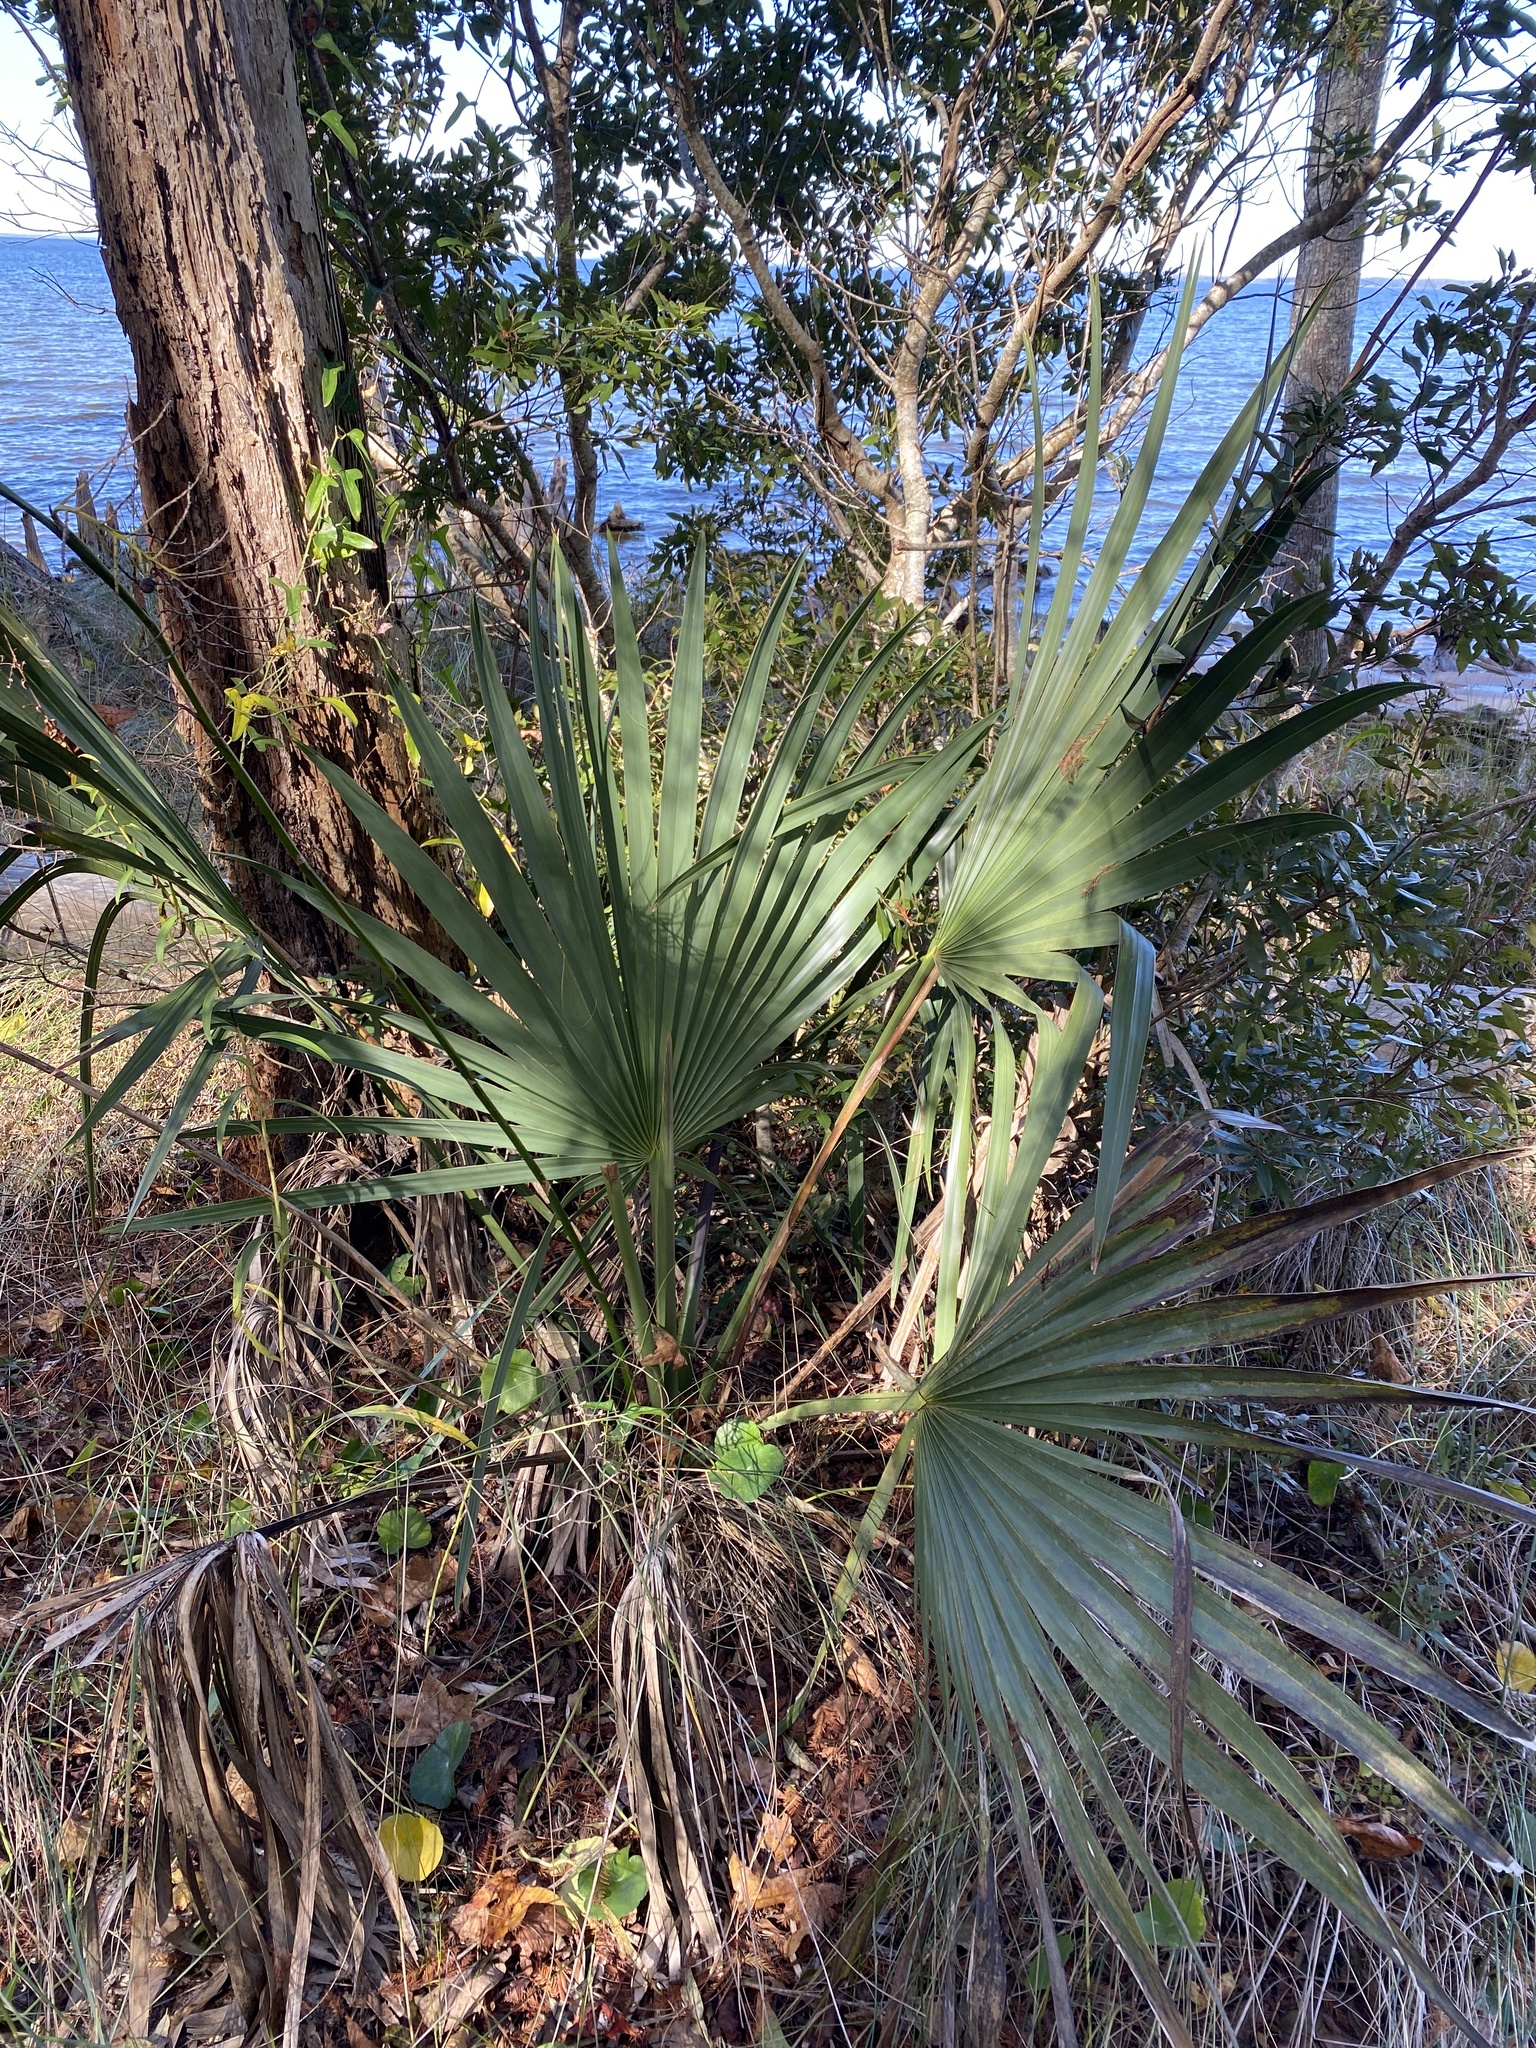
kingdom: Plantae
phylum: Tracheophyta
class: Liliopsida
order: Arecales
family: Arecaceae
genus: Sabal
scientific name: Sabal minor
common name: Dwarf palmetto
